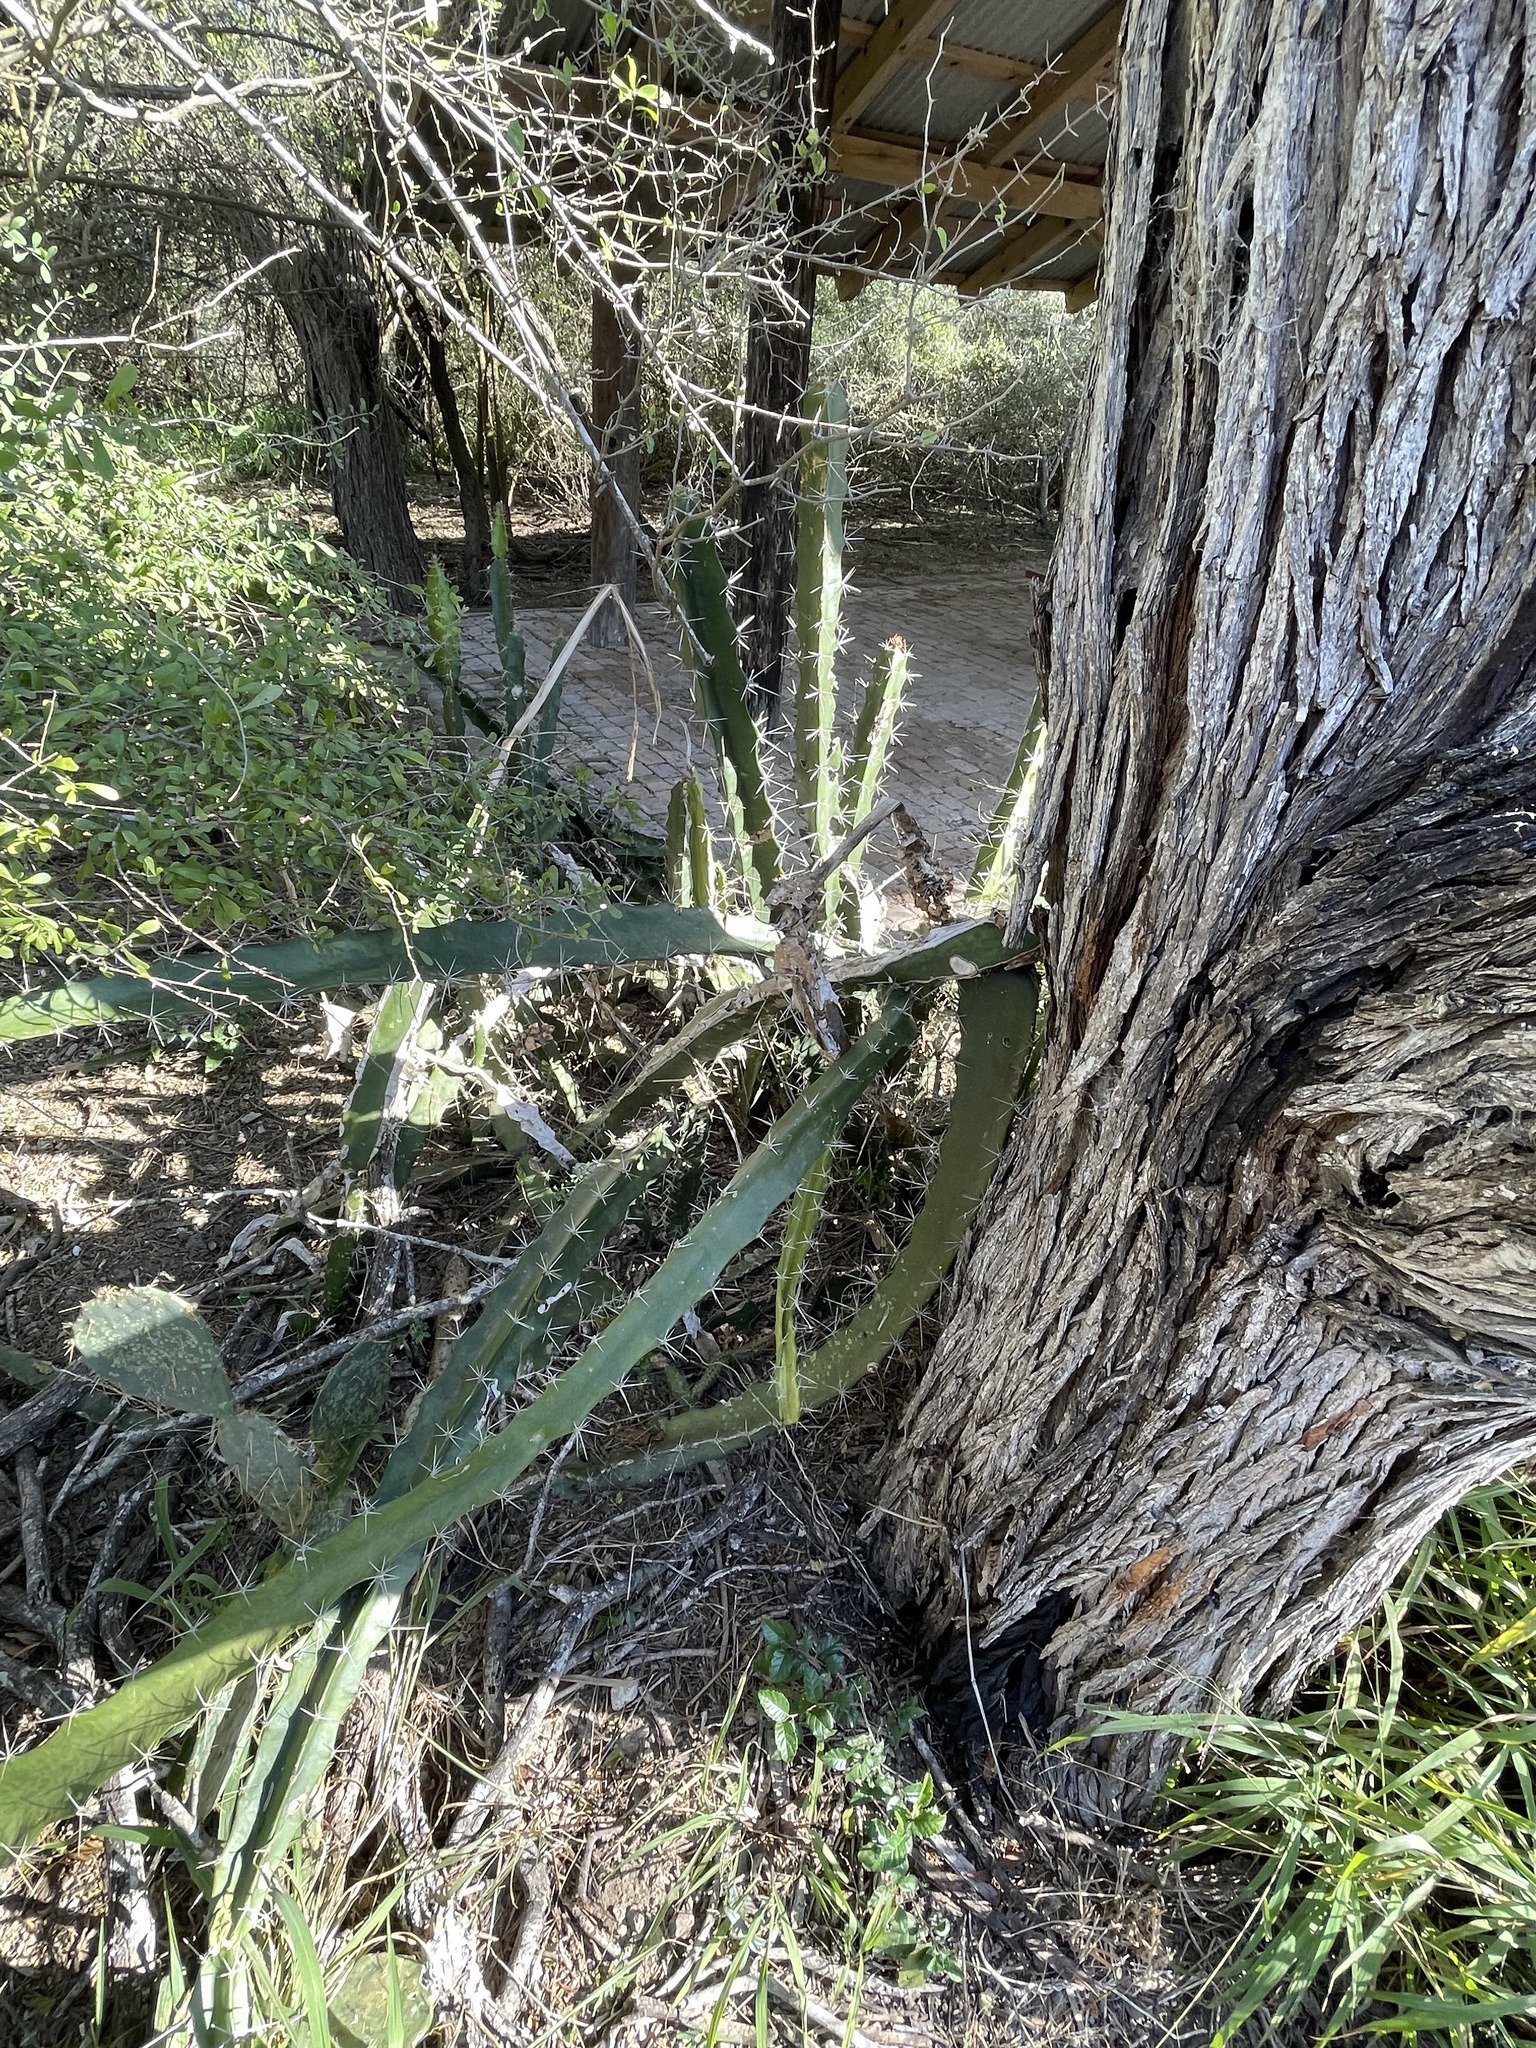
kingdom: Plantae
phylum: Tracheophyta
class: Magnoliopsida
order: Caryophyllales
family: Cactaceae
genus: Acanthocereus
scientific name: Acanthocereus tetragonus
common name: Triangle cactus
